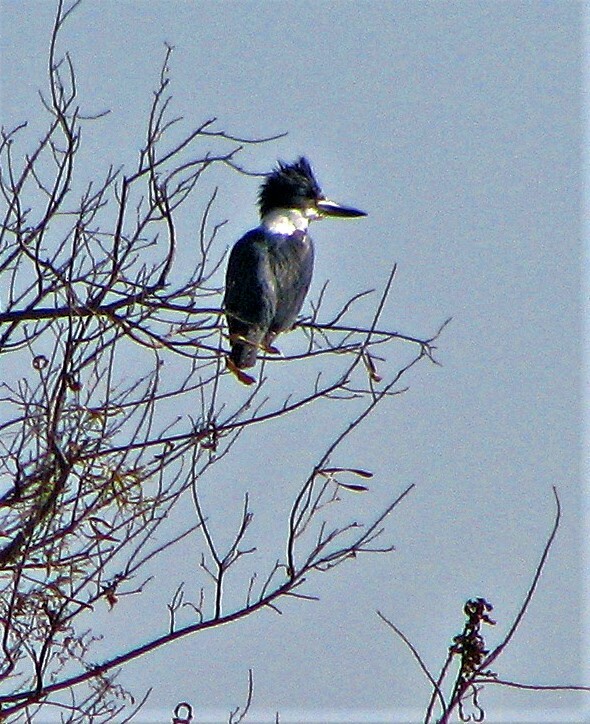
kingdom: Animalia
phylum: Chordata
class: Aves
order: Coraciiformes
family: Alcedinidae
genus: Megaceryle
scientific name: Megaceryle torquata
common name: Ringed kingfisher
